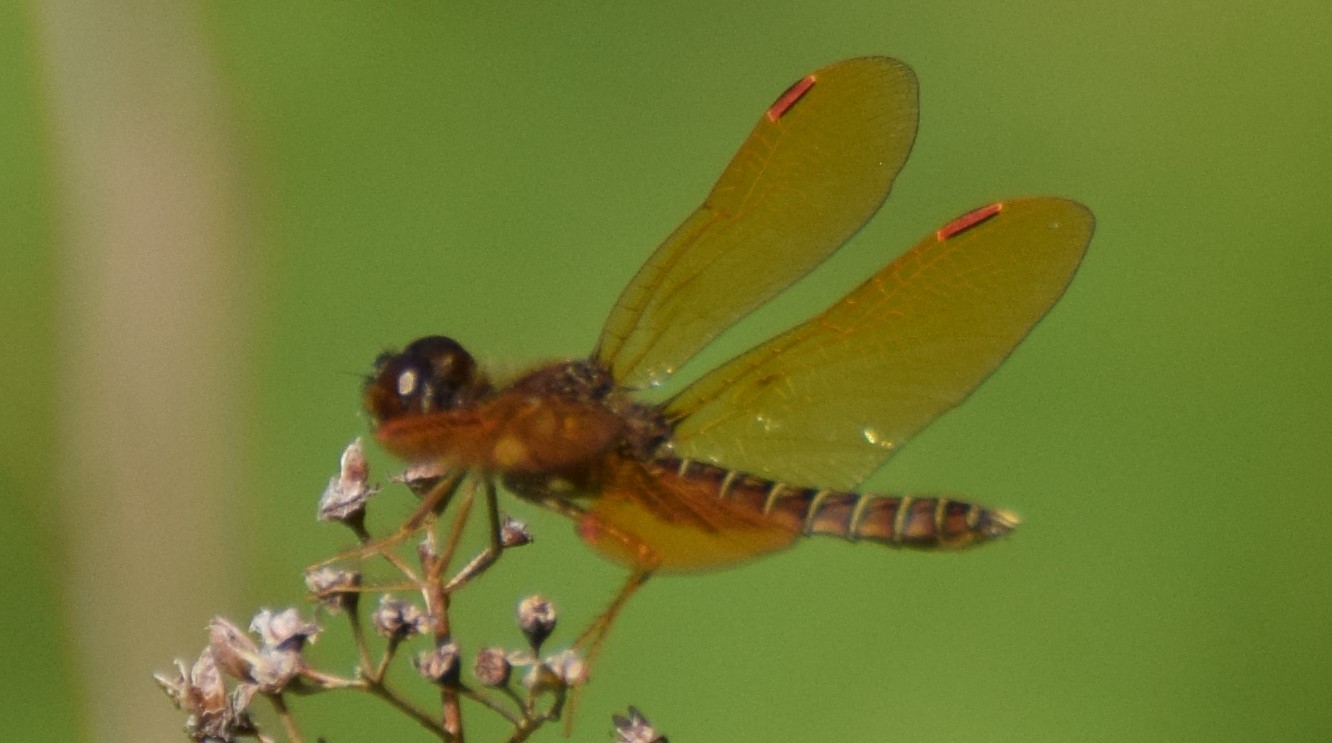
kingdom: Animalia
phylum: Arthropoda
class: Insecta
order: Odonata
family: Libellulidae
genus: Perithemis
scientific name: Perithemis tenera
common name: Eastern amberwing
